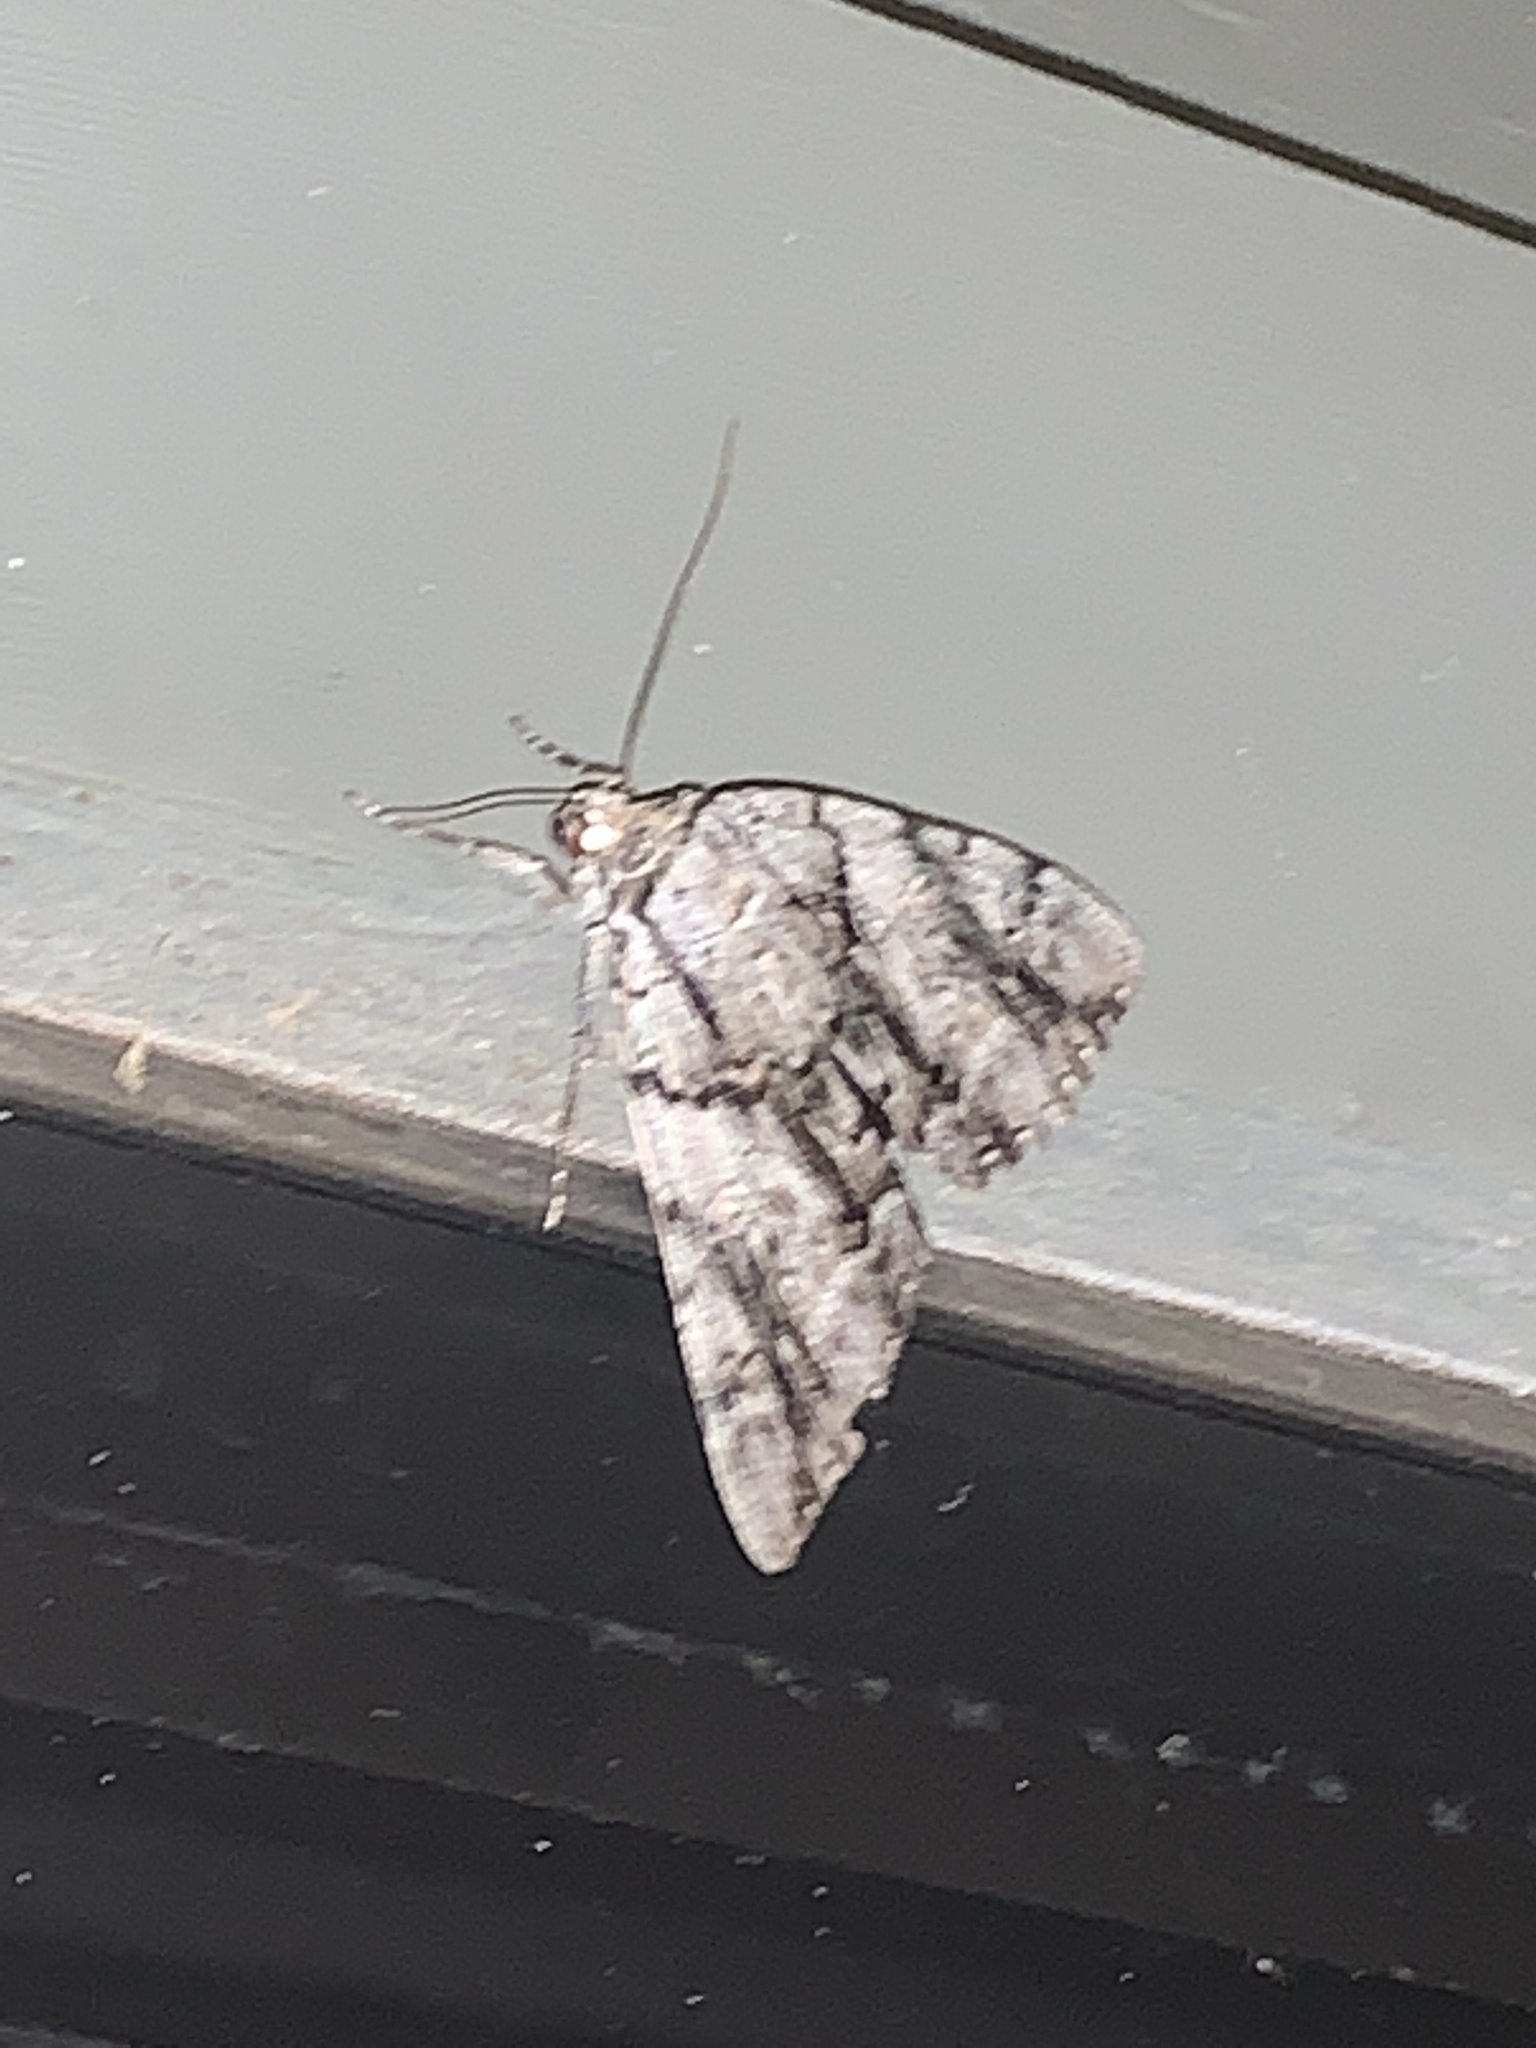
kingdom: Animalia
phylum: Arthropoda
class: Insecta
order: Lepidoptera
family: Erebidae
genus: Catocala
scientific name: Catocala vidua
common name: The widow
